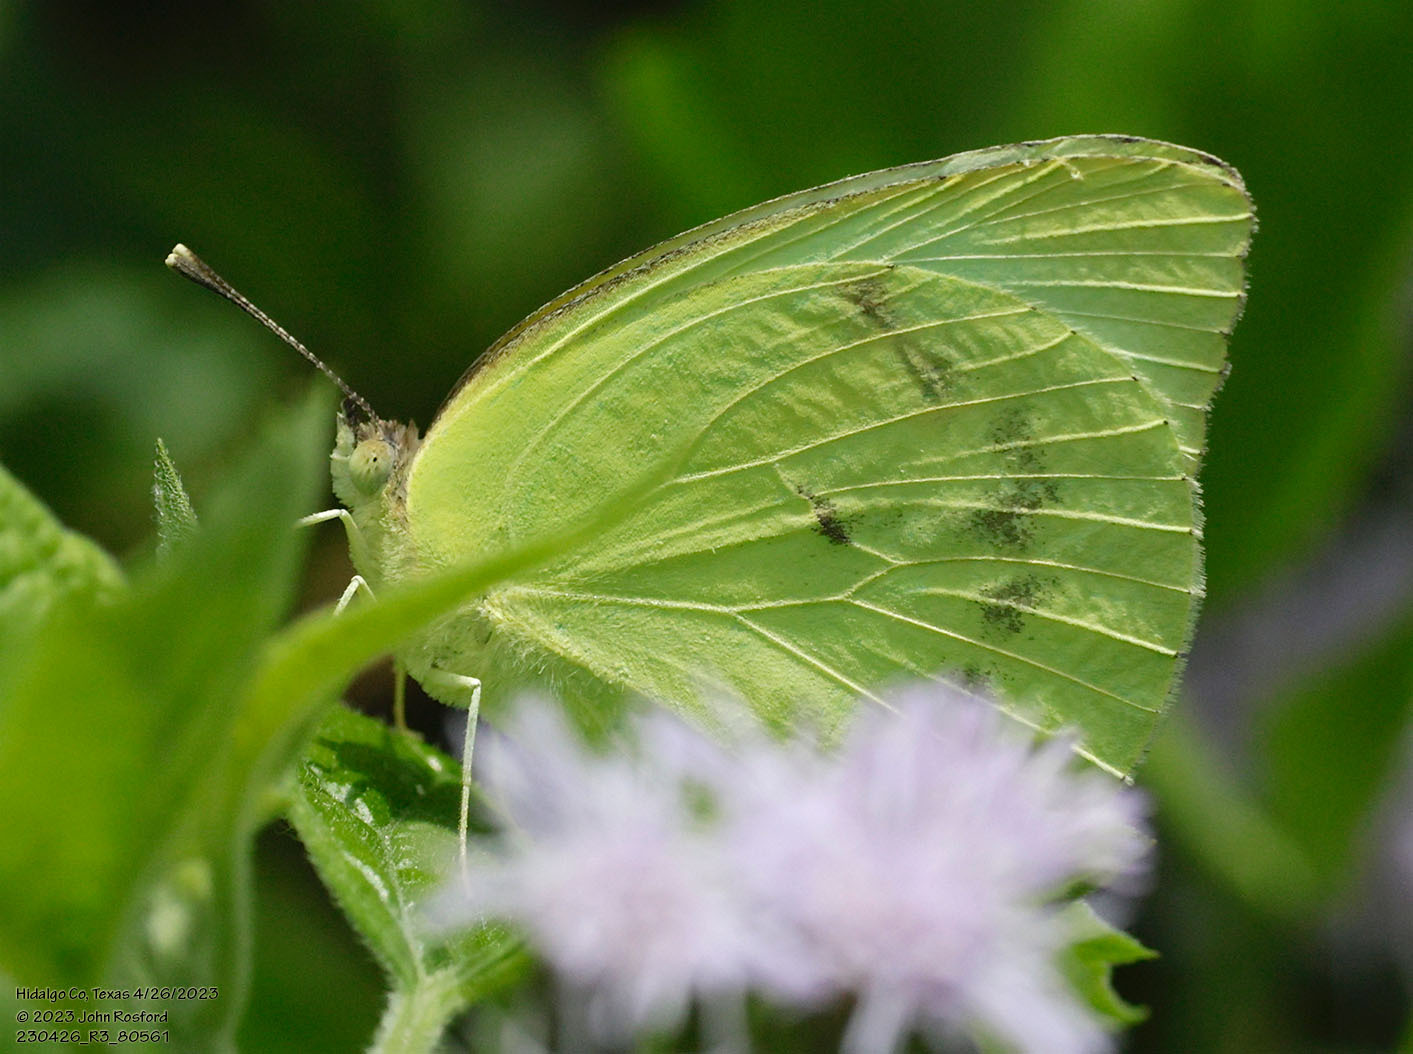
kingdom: Animalia
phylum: Arthropoda
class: Insecta
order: Lepidoptera
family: Pieridae
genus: Kricogonia
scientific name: Kricogonia lyside
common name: Guayacan sulphur,
